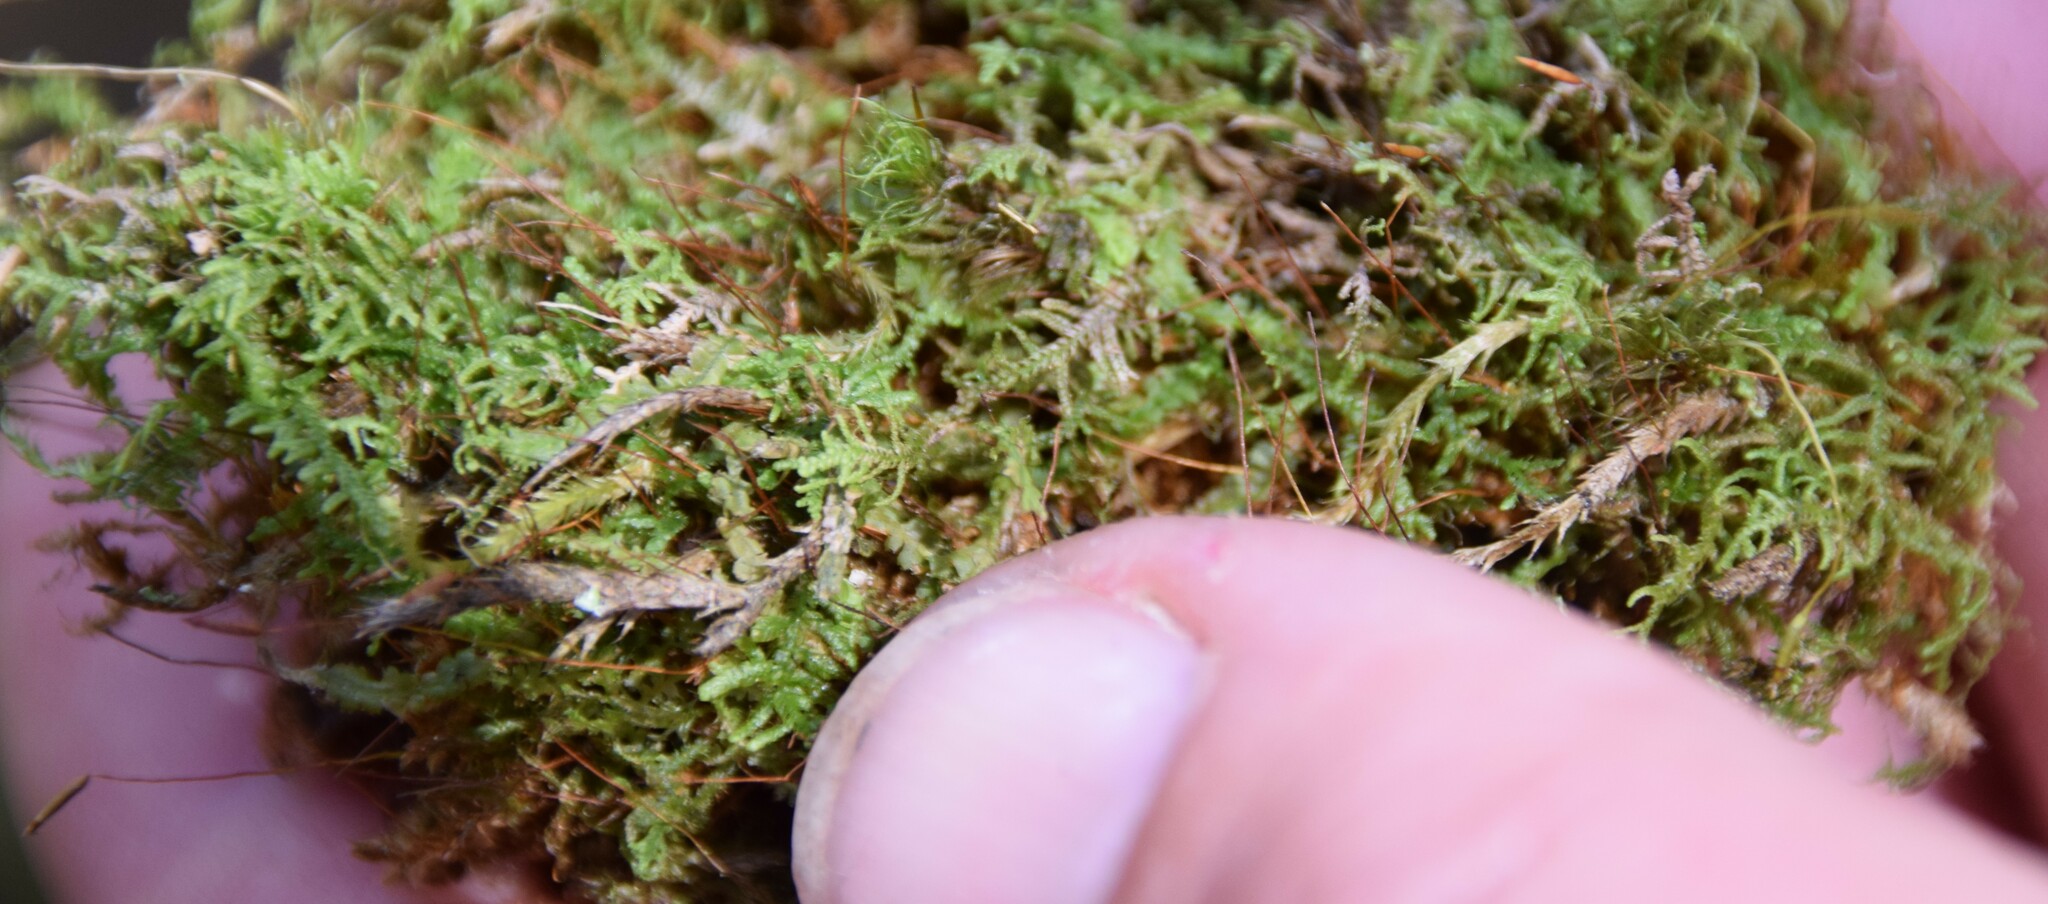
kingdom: Plantae
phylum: Marchantiophyta
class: Jungermanniopsida
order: Jungermanniales
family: Lepidoziaceae
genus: Lepidozia
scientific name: Lepidozia reptans
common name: Creeping fingerwort
